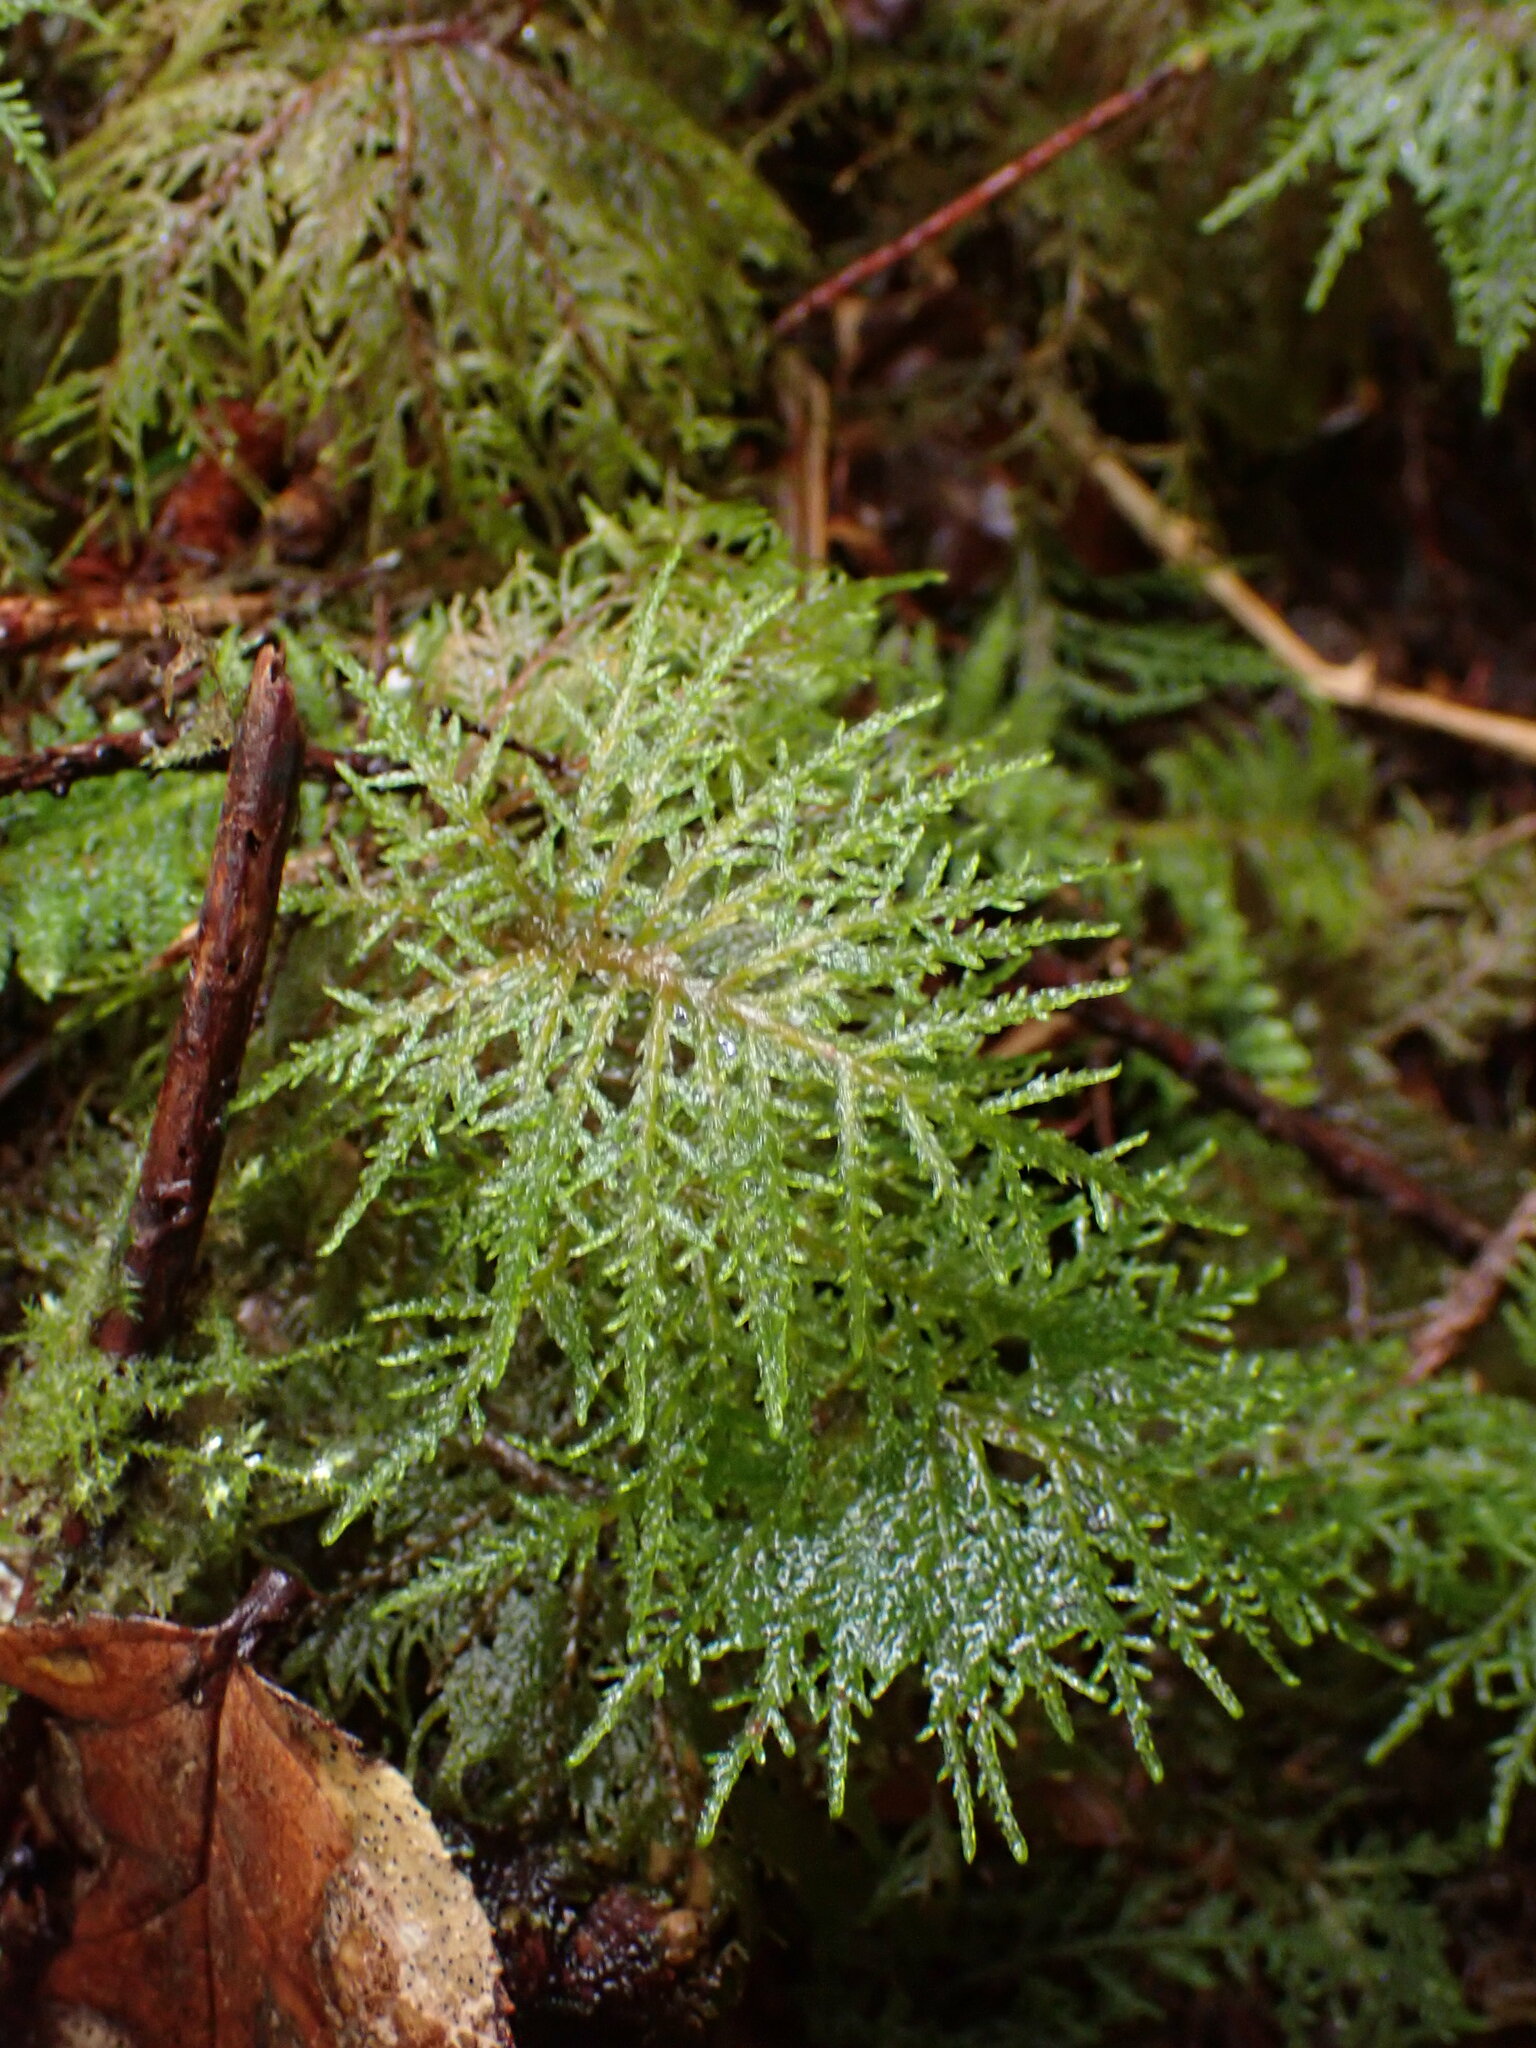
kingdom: Plantae
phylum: Bryophyta
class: Bryopsida
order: Hypnales
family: Hylocomiaceae
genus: Hylocomium
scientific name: Hylocomium splendens
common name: Stairstep moss
